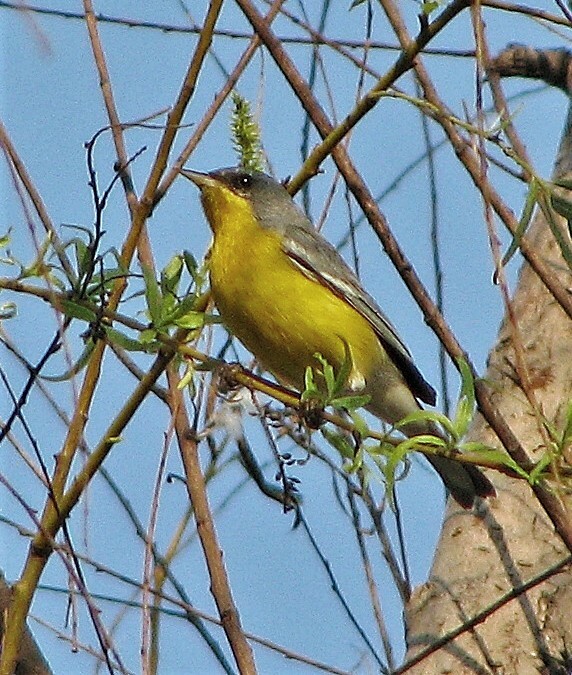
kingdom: Animalia
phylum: Chordata
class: Aves
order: Passeriformes
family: Parulidae
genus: Setophaga
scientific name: Setophaga pitiayumi
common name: Tropical parula
